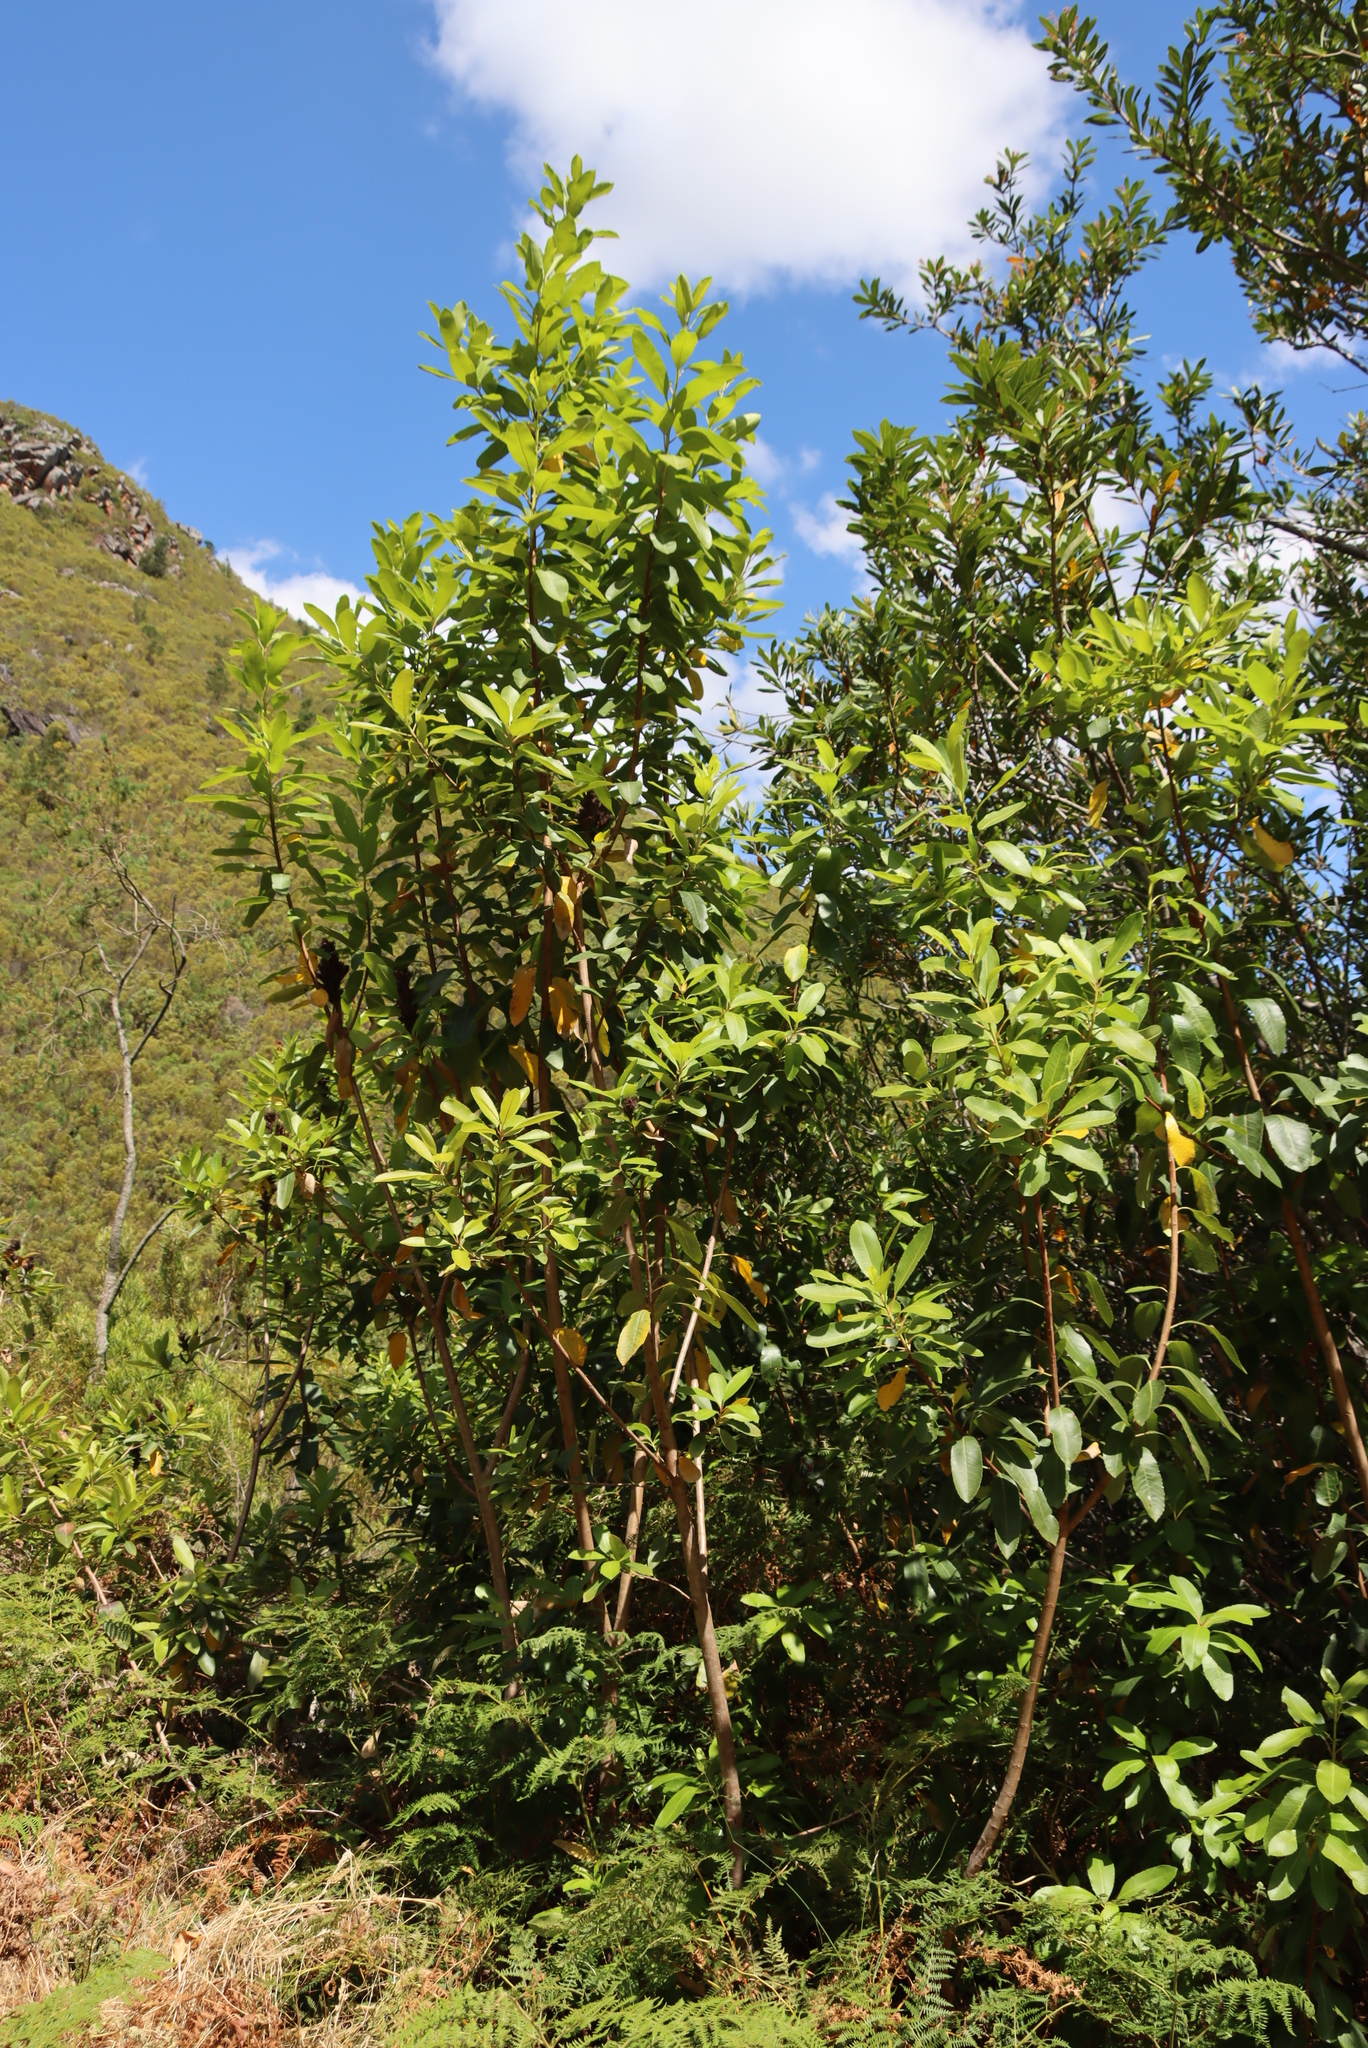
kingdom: Plantae
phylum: Tracheophyta
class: Magnoliopsida
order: Sapindales
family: Anacardiaceae
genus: Laurophyllus
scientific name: Laurophyllus capensis
